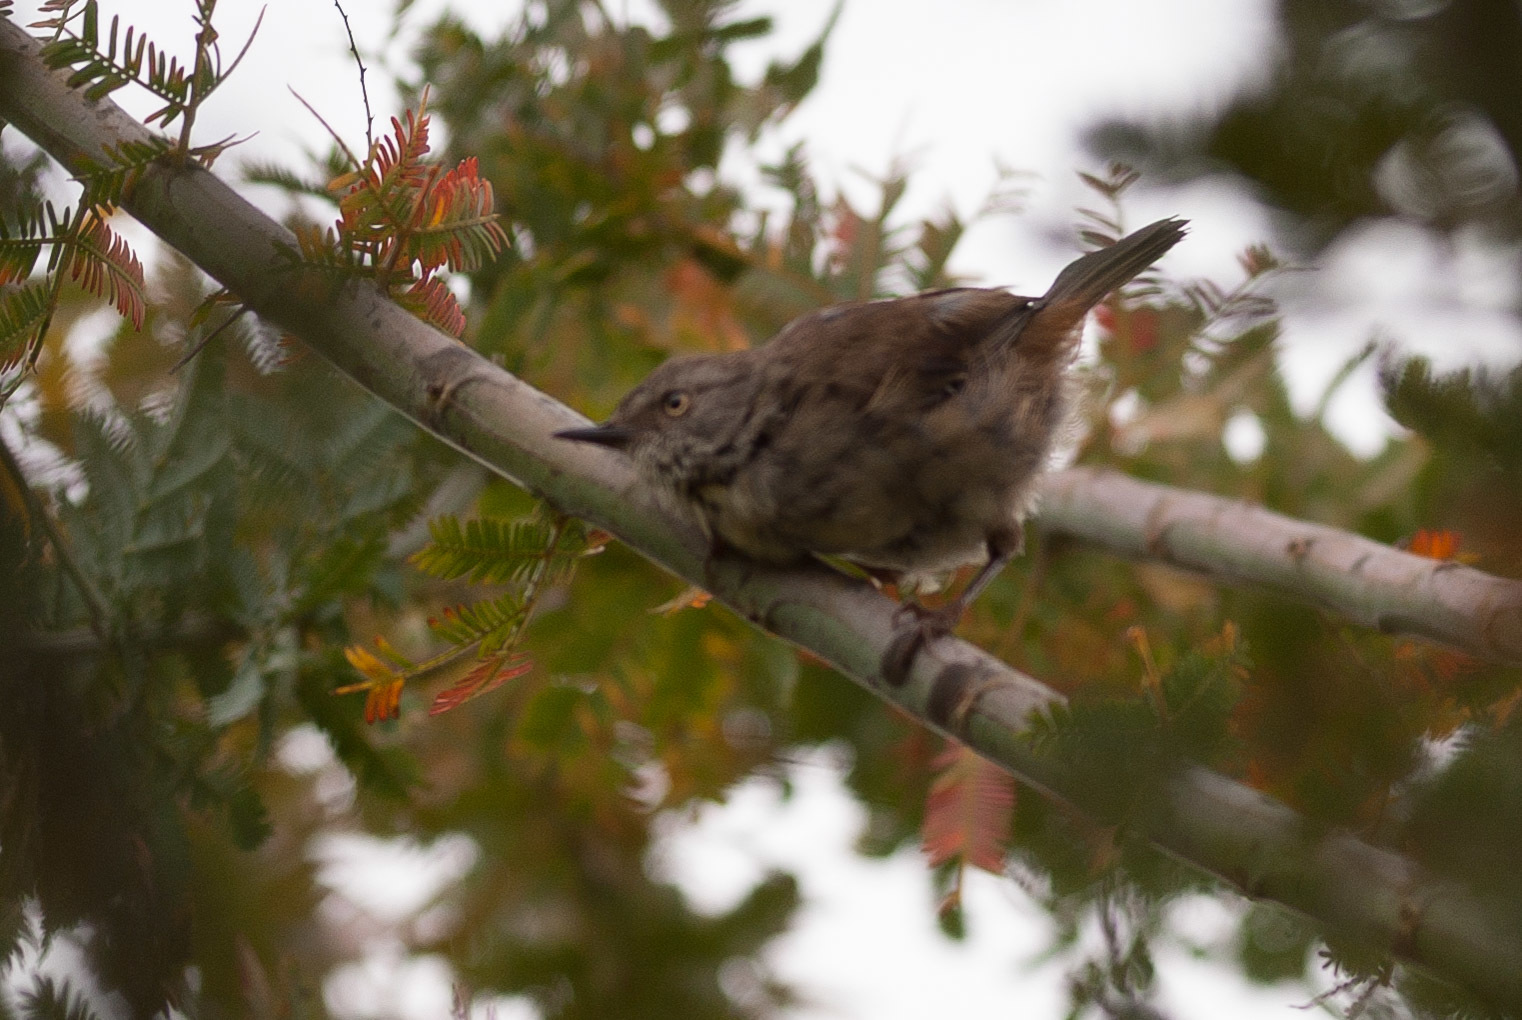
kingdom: Animalia
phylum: Chordata
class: Aves
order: Passeriformes
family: Acanthizidae
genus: Sericornis
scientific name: Sericornis frontalis
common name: White-browed scrubwren
